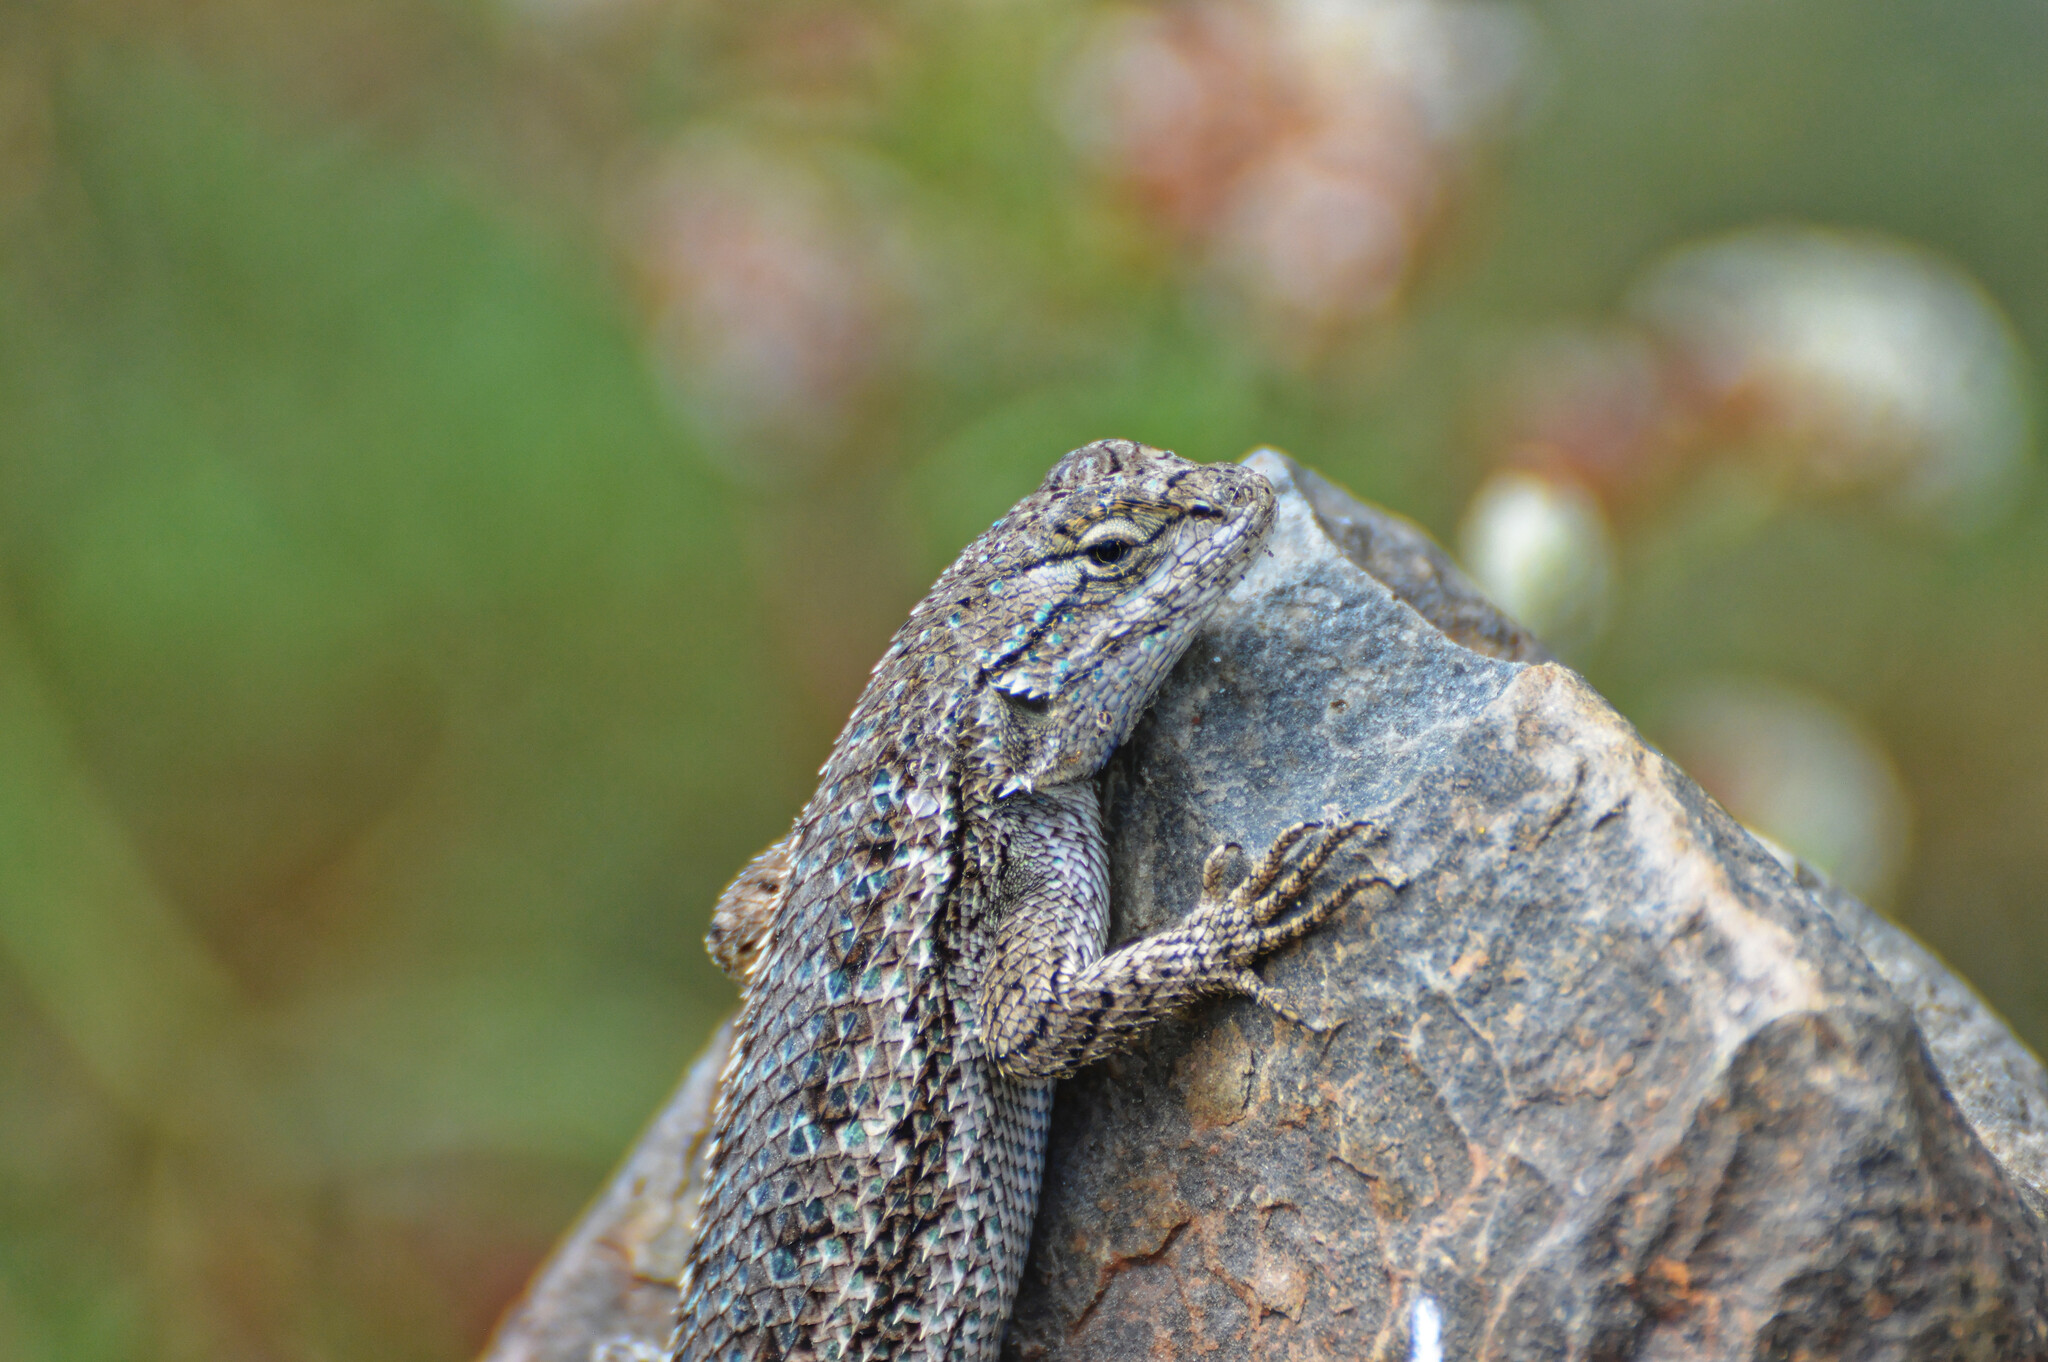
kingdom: Animalia
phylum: Chordata
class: Squamata
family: Phrynosomatidae
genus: Sceloporus
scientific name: Sceloporus occidentalis
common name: Western fence lizard
